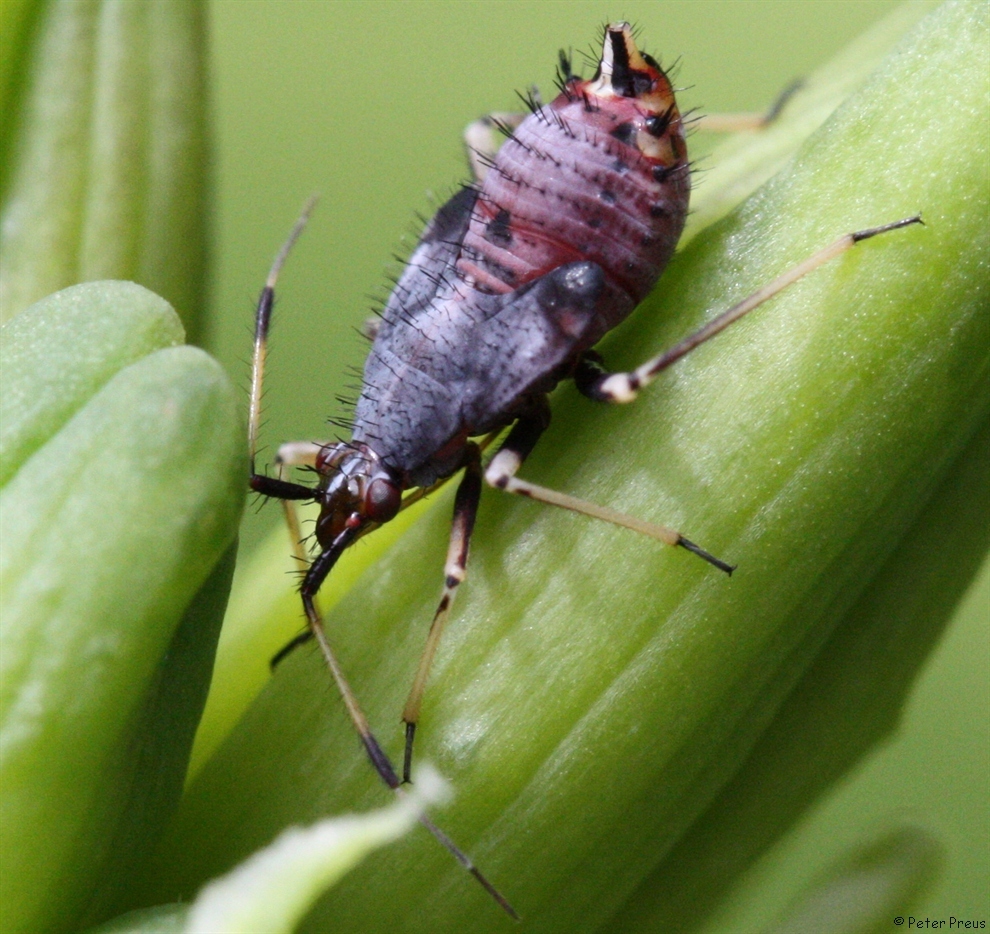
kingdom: Animalia
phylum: Arthropoda
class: Insecta
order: Hemiptera
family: Miridae
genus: Deraeocoris
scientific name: Deraeocoris ruber
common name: Plant bug
